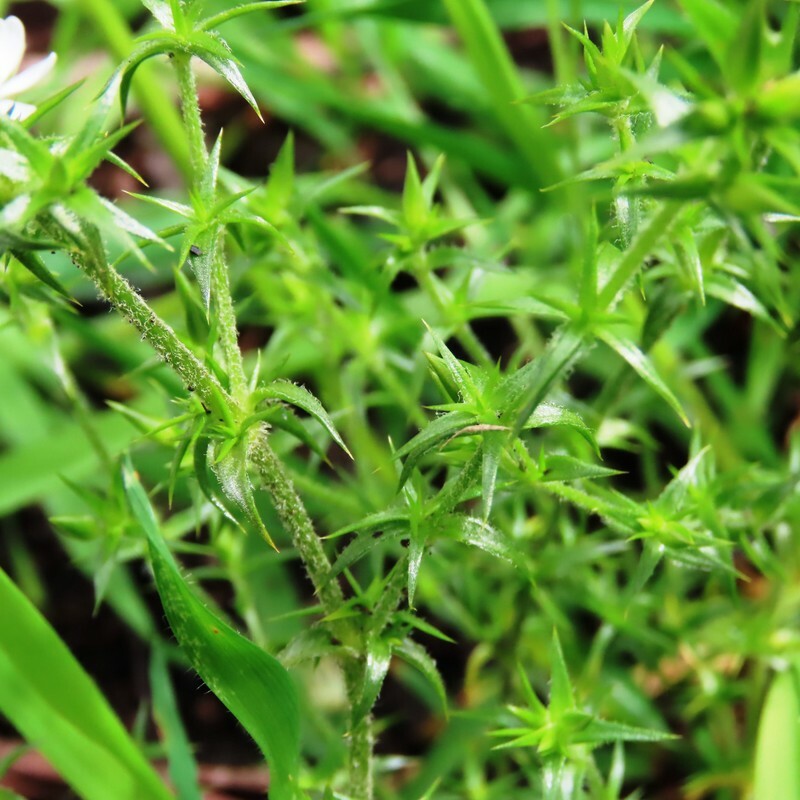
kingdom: Plantae
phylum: Tracheophyta
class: Magnoliopsida
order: Caryophyllales
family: Caryophyllaceae
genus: Stellaria
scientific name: Stellaria pungens
